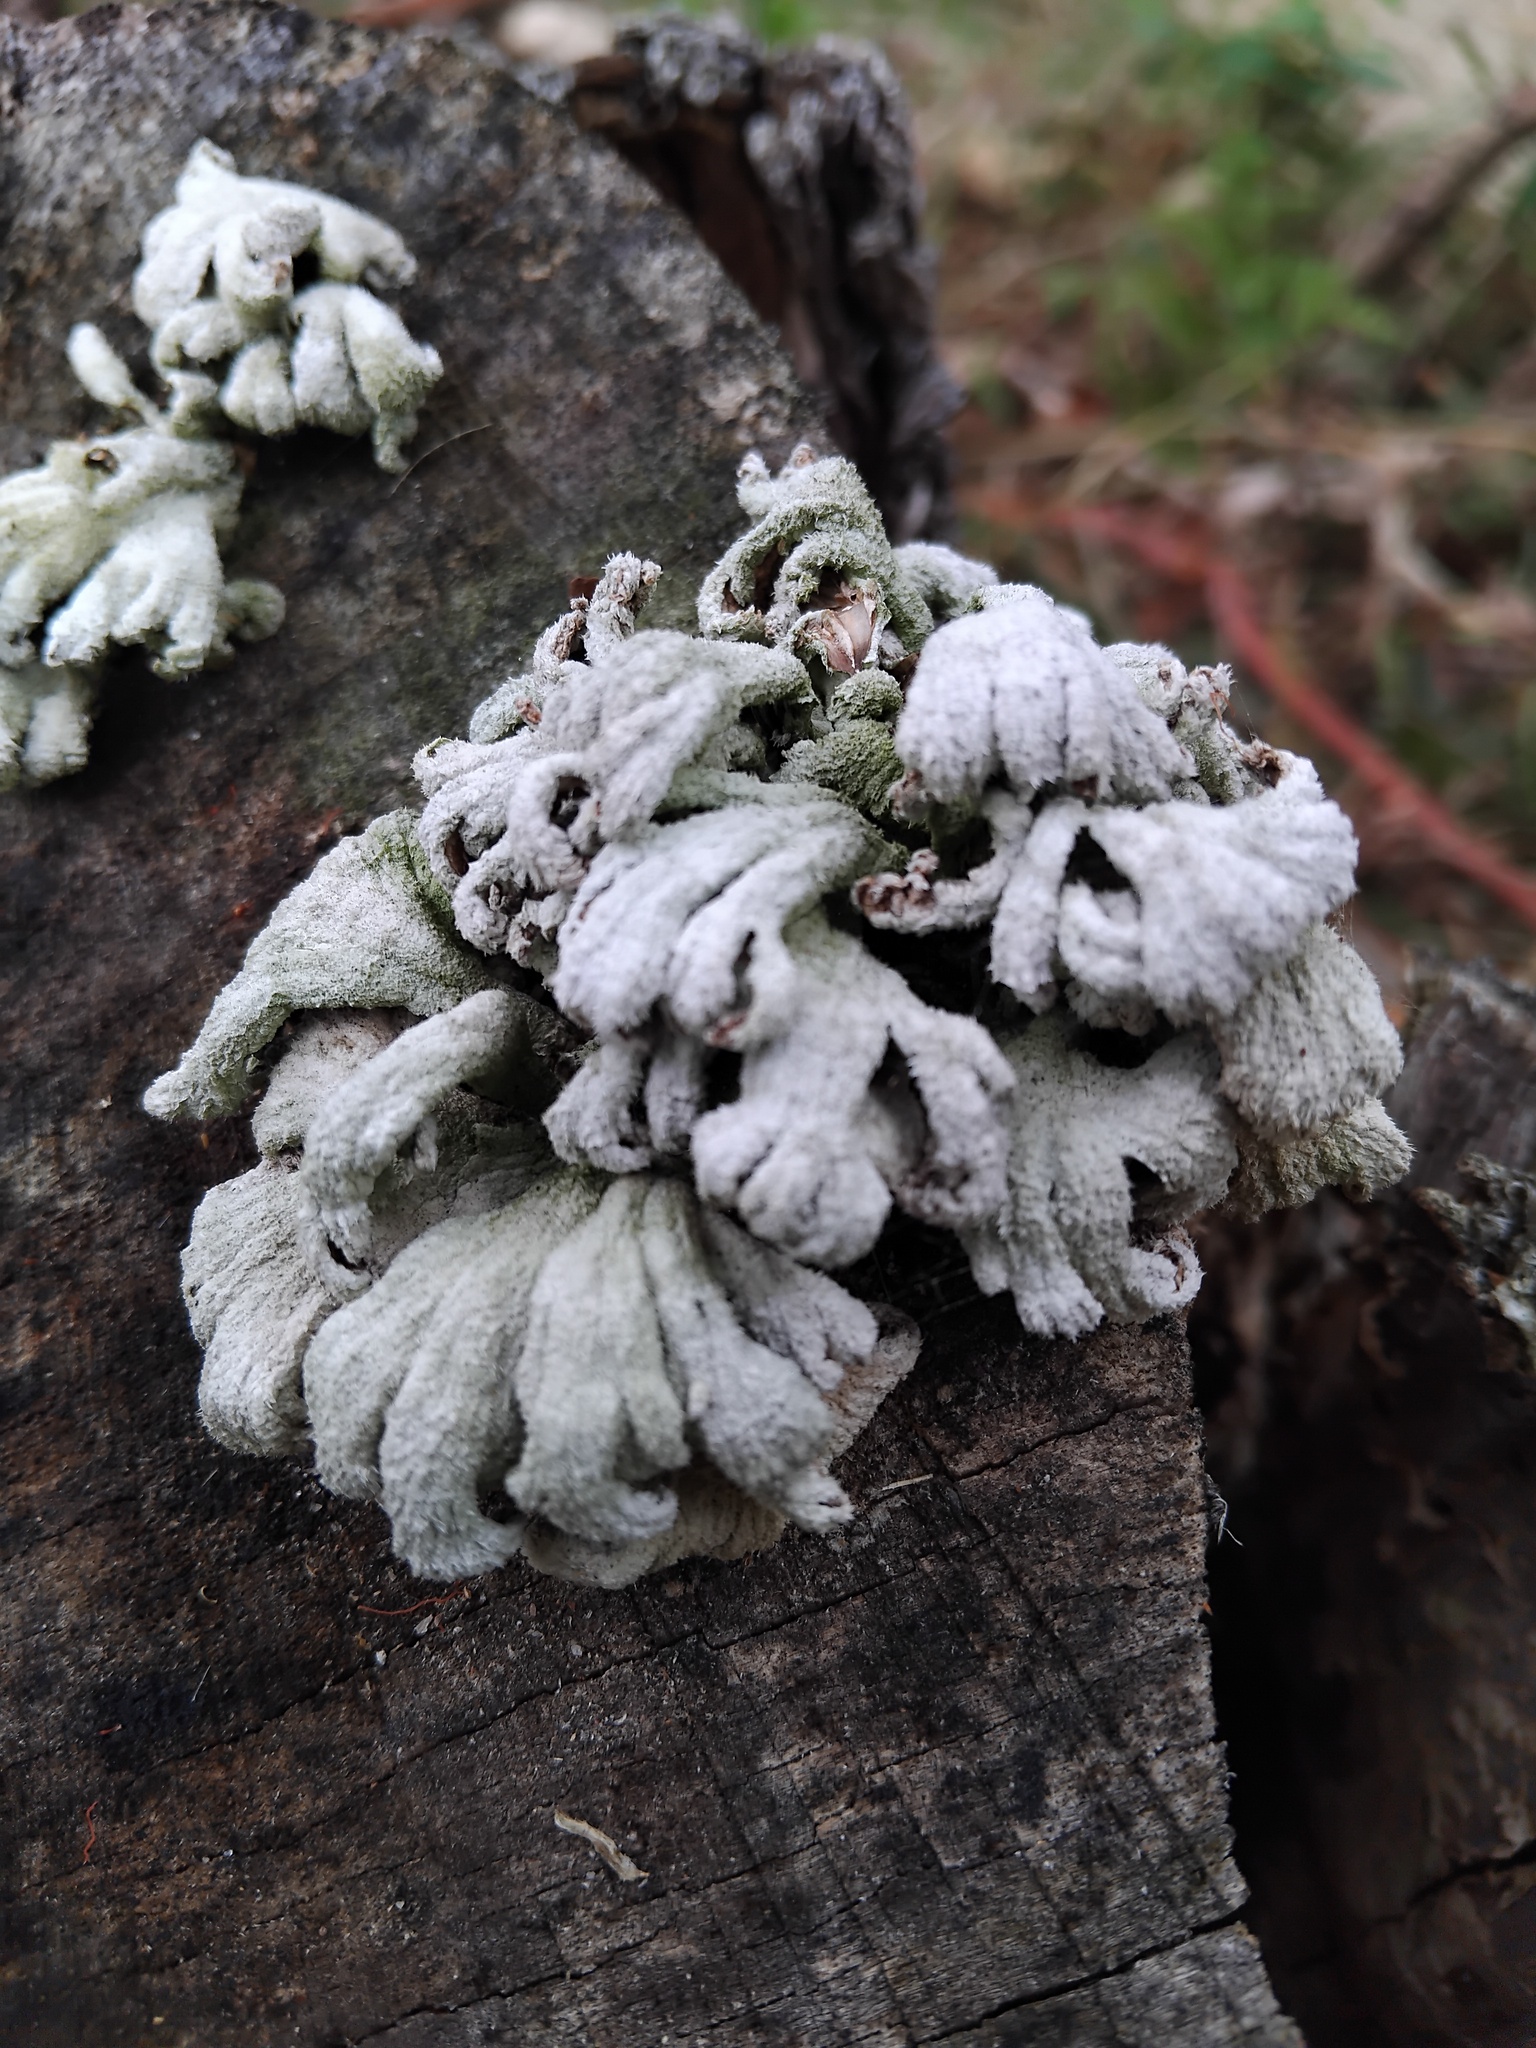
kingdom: Fungi
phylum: Basidiomycota
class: Agaricomycetes
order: Agaricales
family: Schizophyllaceae
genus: Schizophyllum
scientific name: Schizophyllum commune
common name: Common porecrust
